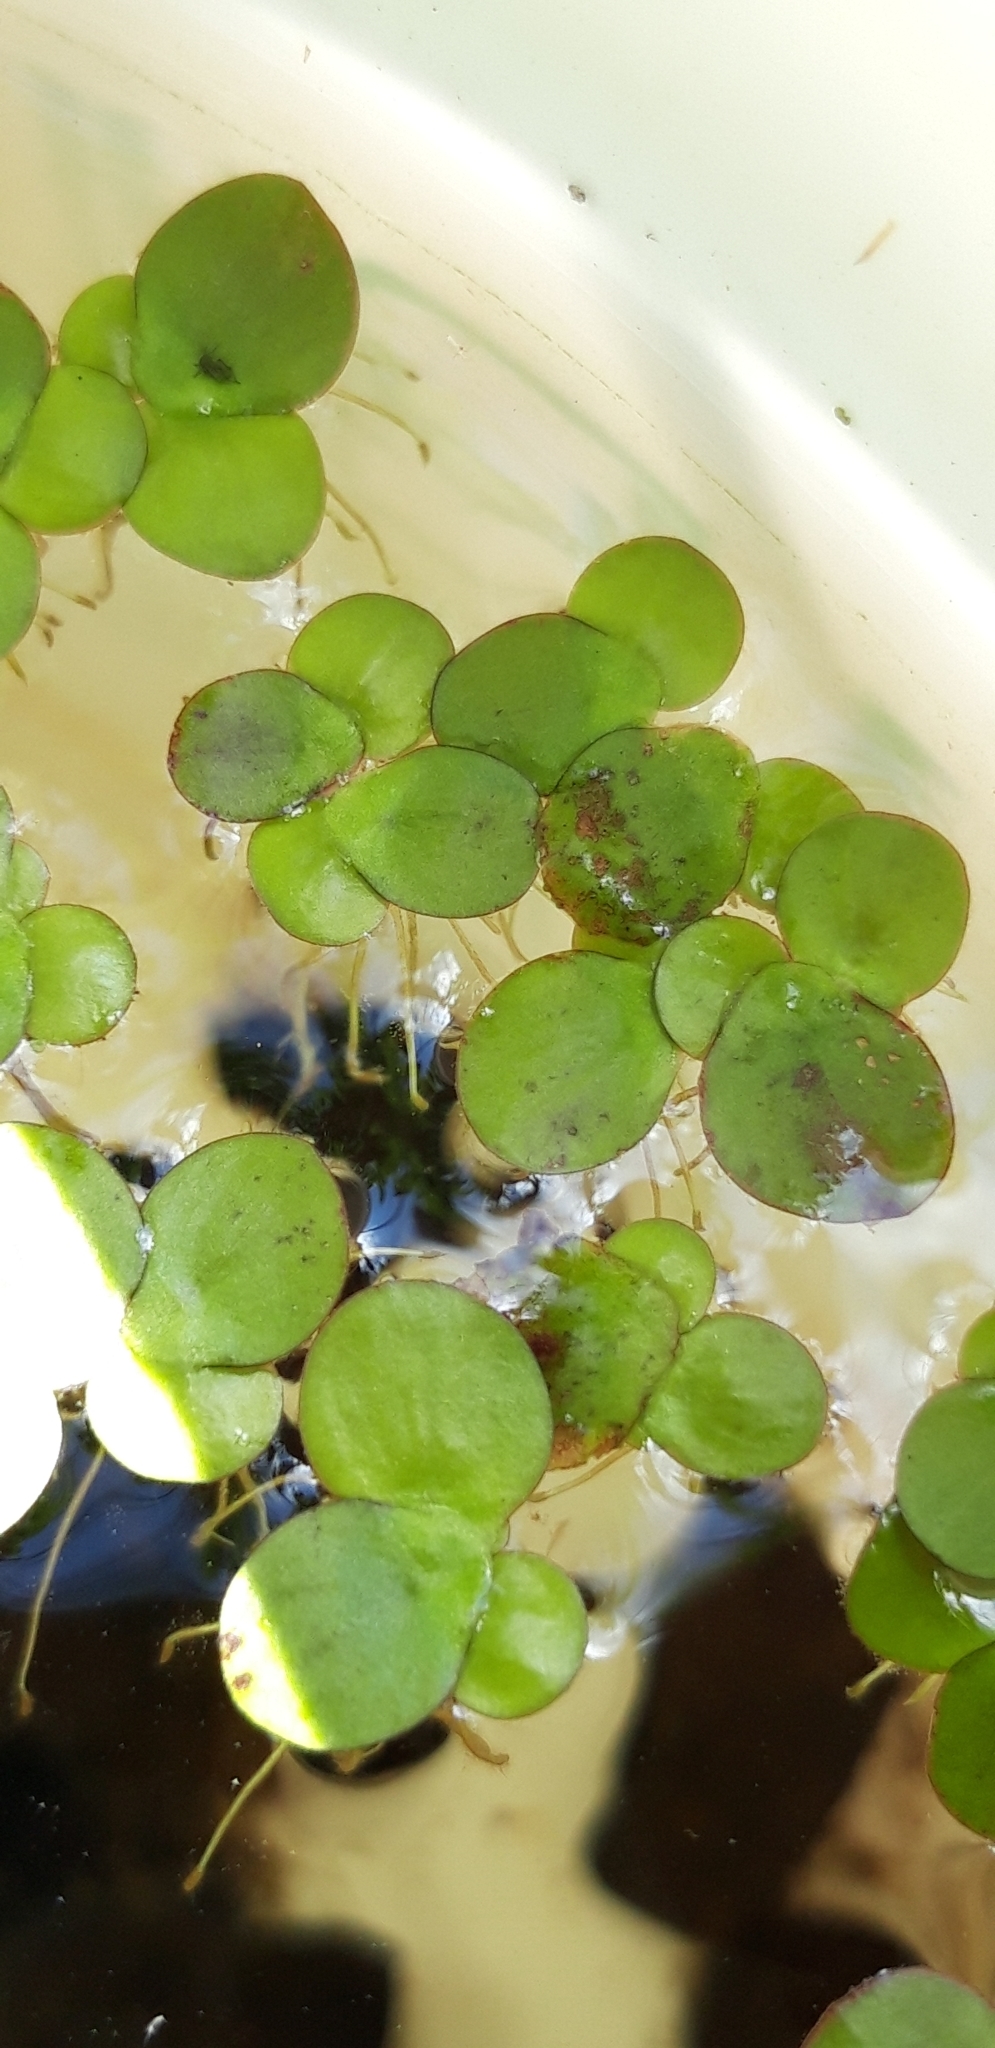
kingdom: Plantae
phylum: Tracheophyta
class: Liliopsida
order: Alismatales
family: Araceae
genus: Spirodela
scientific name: Spirodela polyrhiza
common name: Great duckweed
